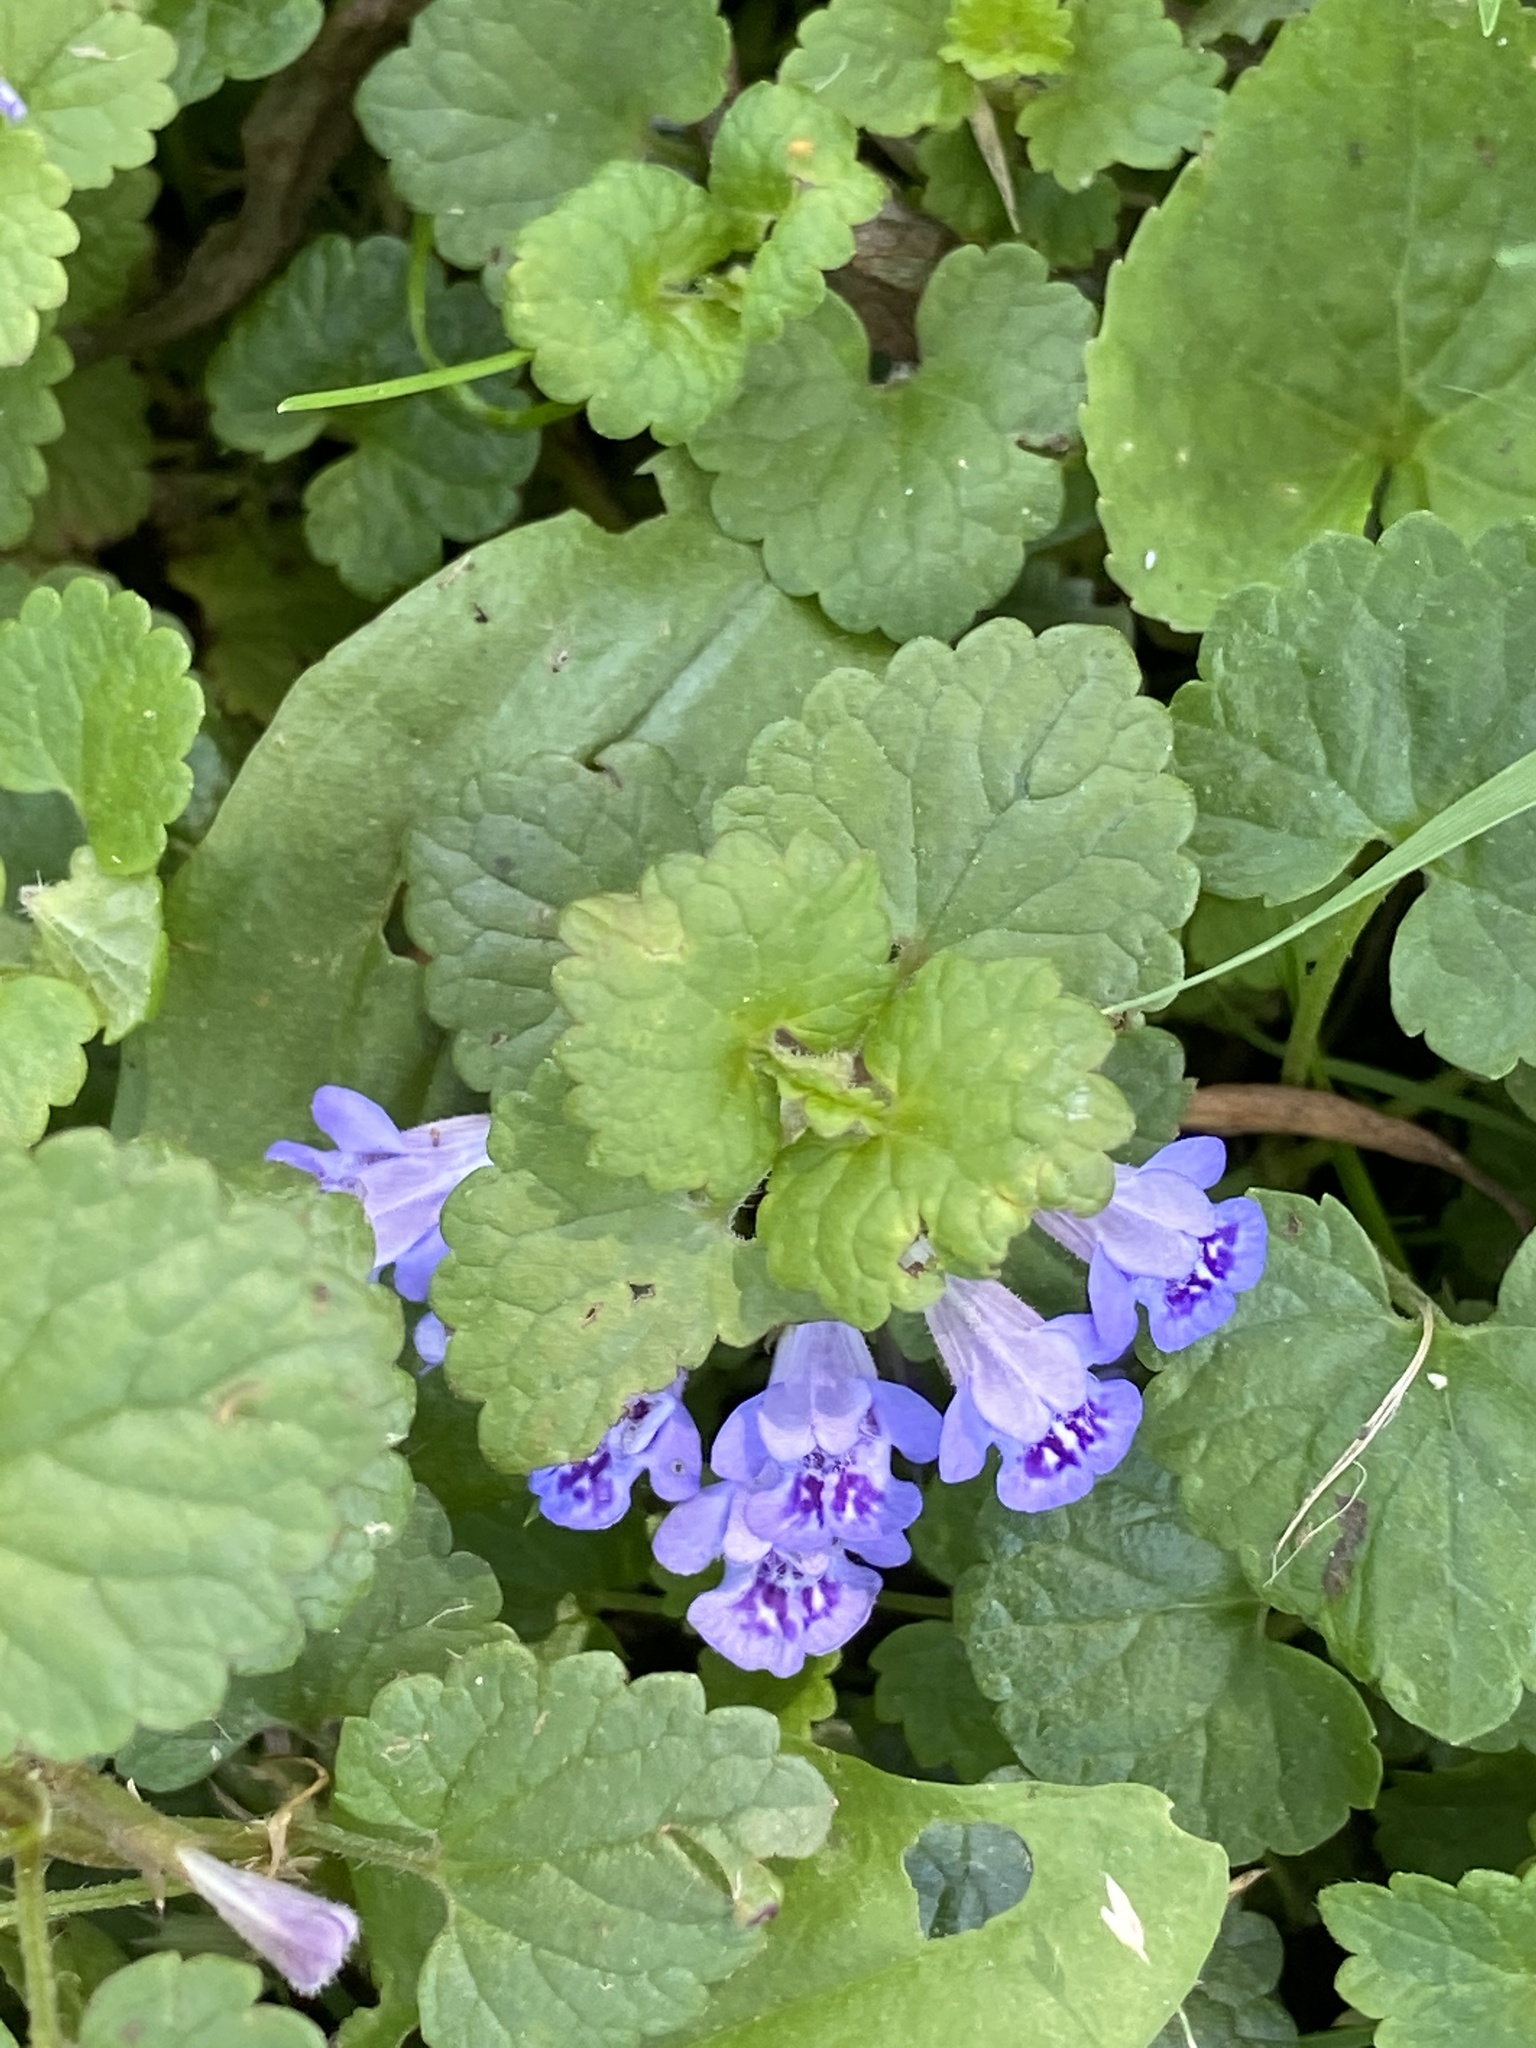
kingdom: Plantae
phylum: Tracheophyta
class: Magnoliopsida
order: Lamiales
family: Lamiaceae
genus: Glechoma
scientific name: Glechoma hederacea
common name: Ground ivy
